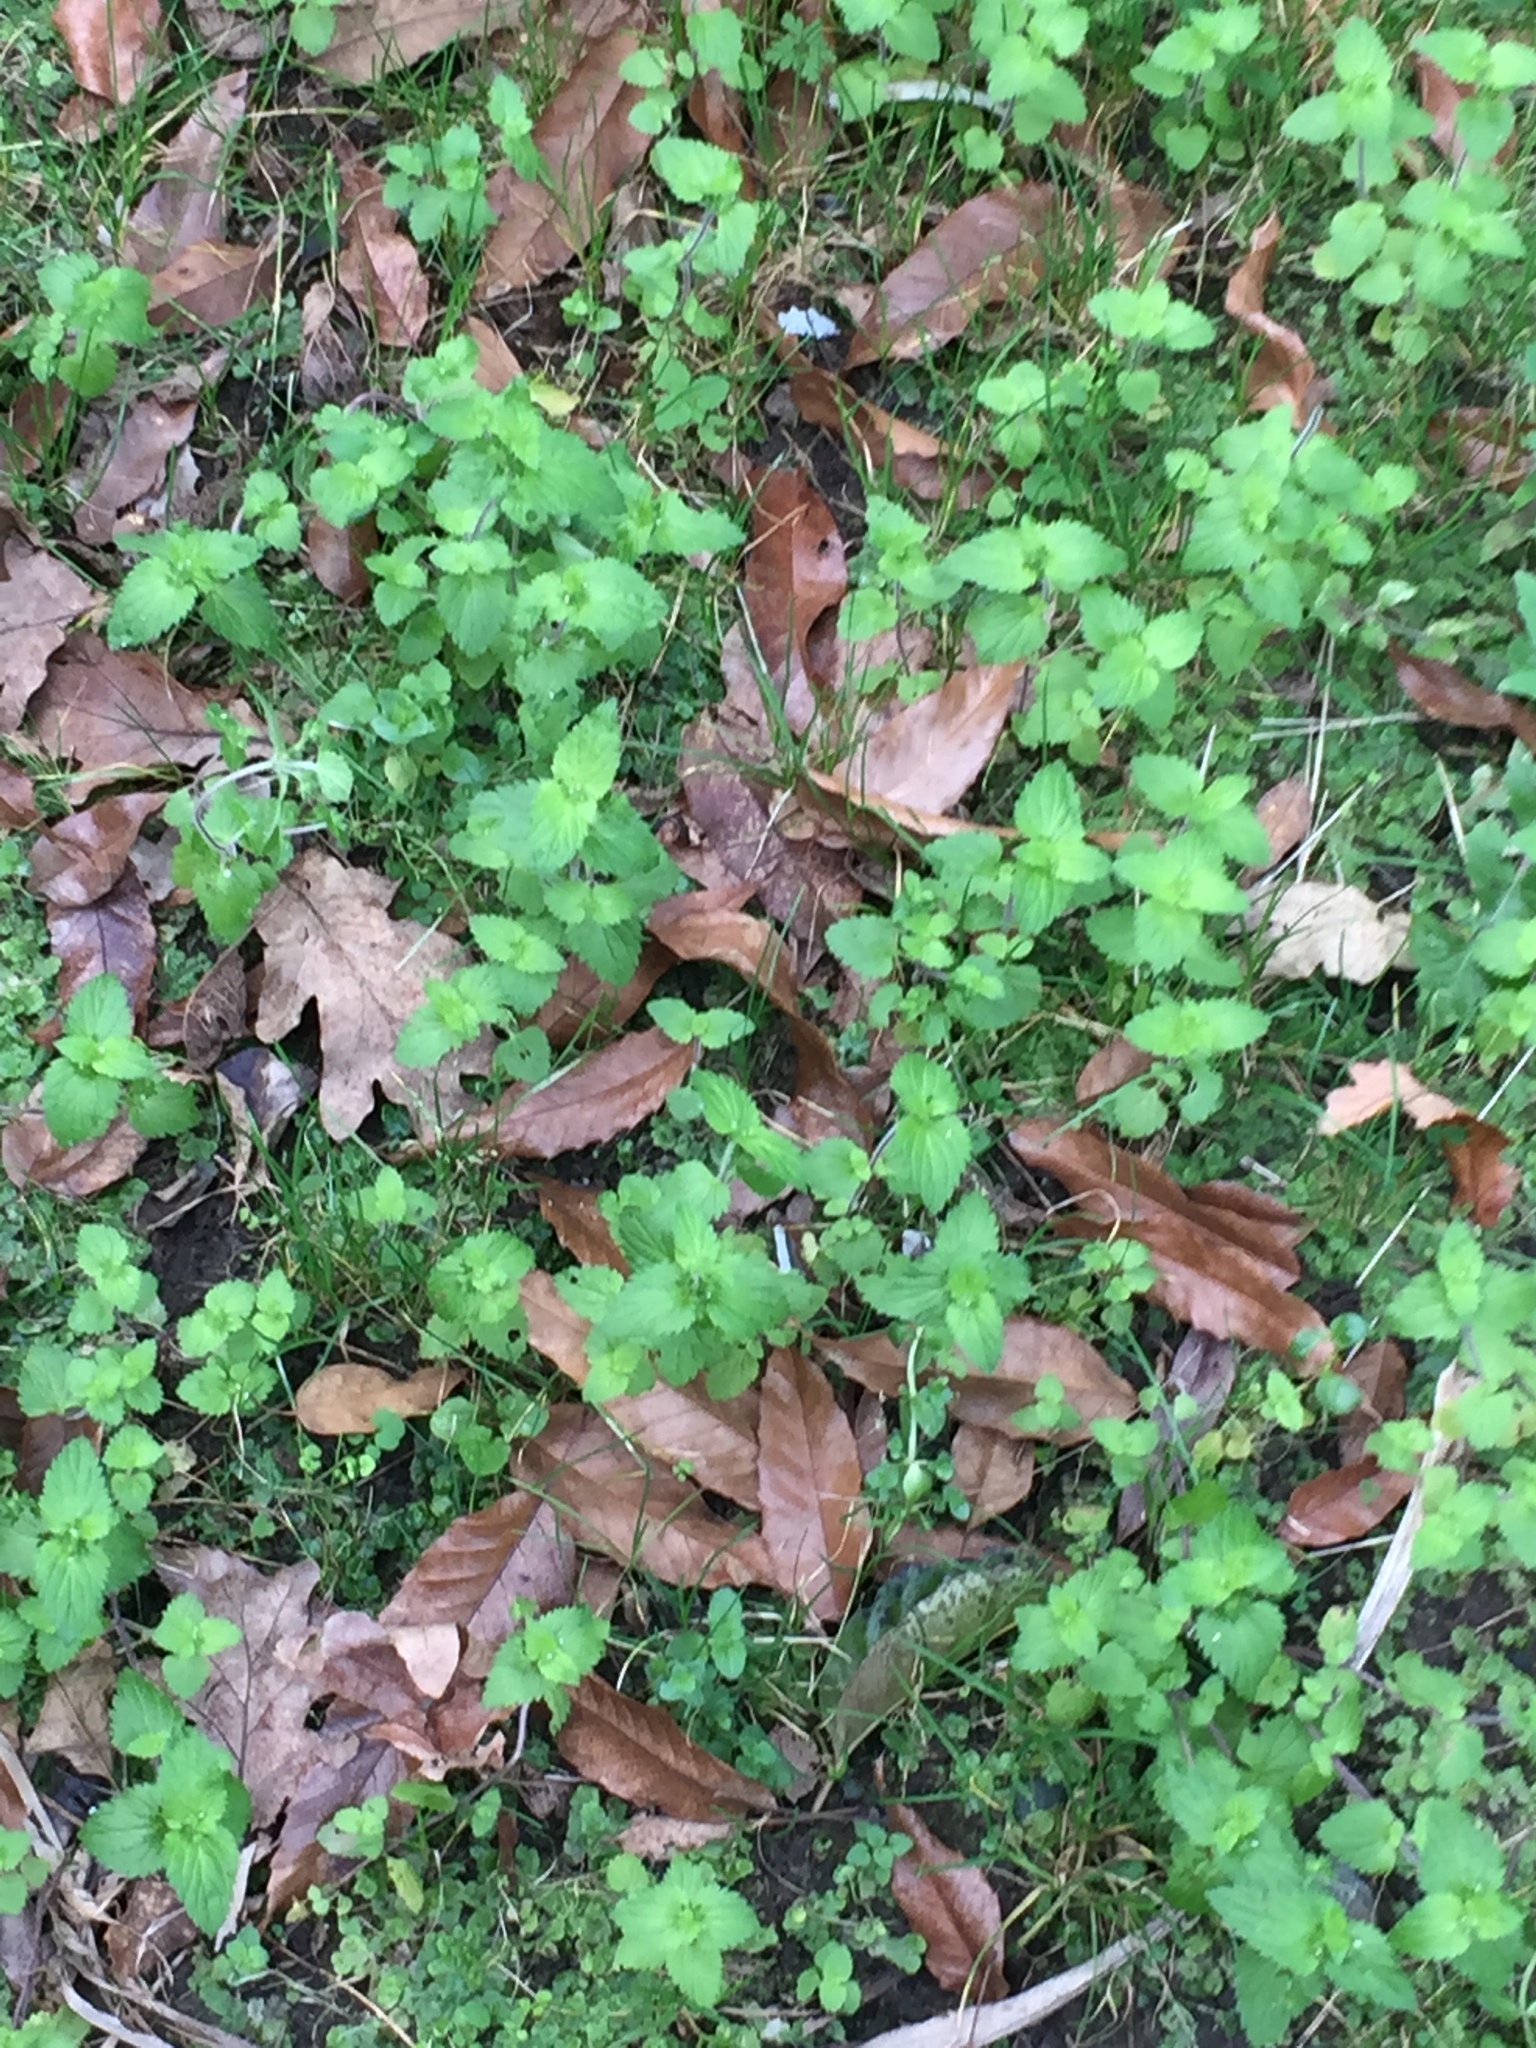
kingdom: Plantae
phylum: Tracheophyta
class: Magnoliopsida
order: Lamiales
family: Plantaginaceae
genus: Veronica
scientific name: Veronica javanica
